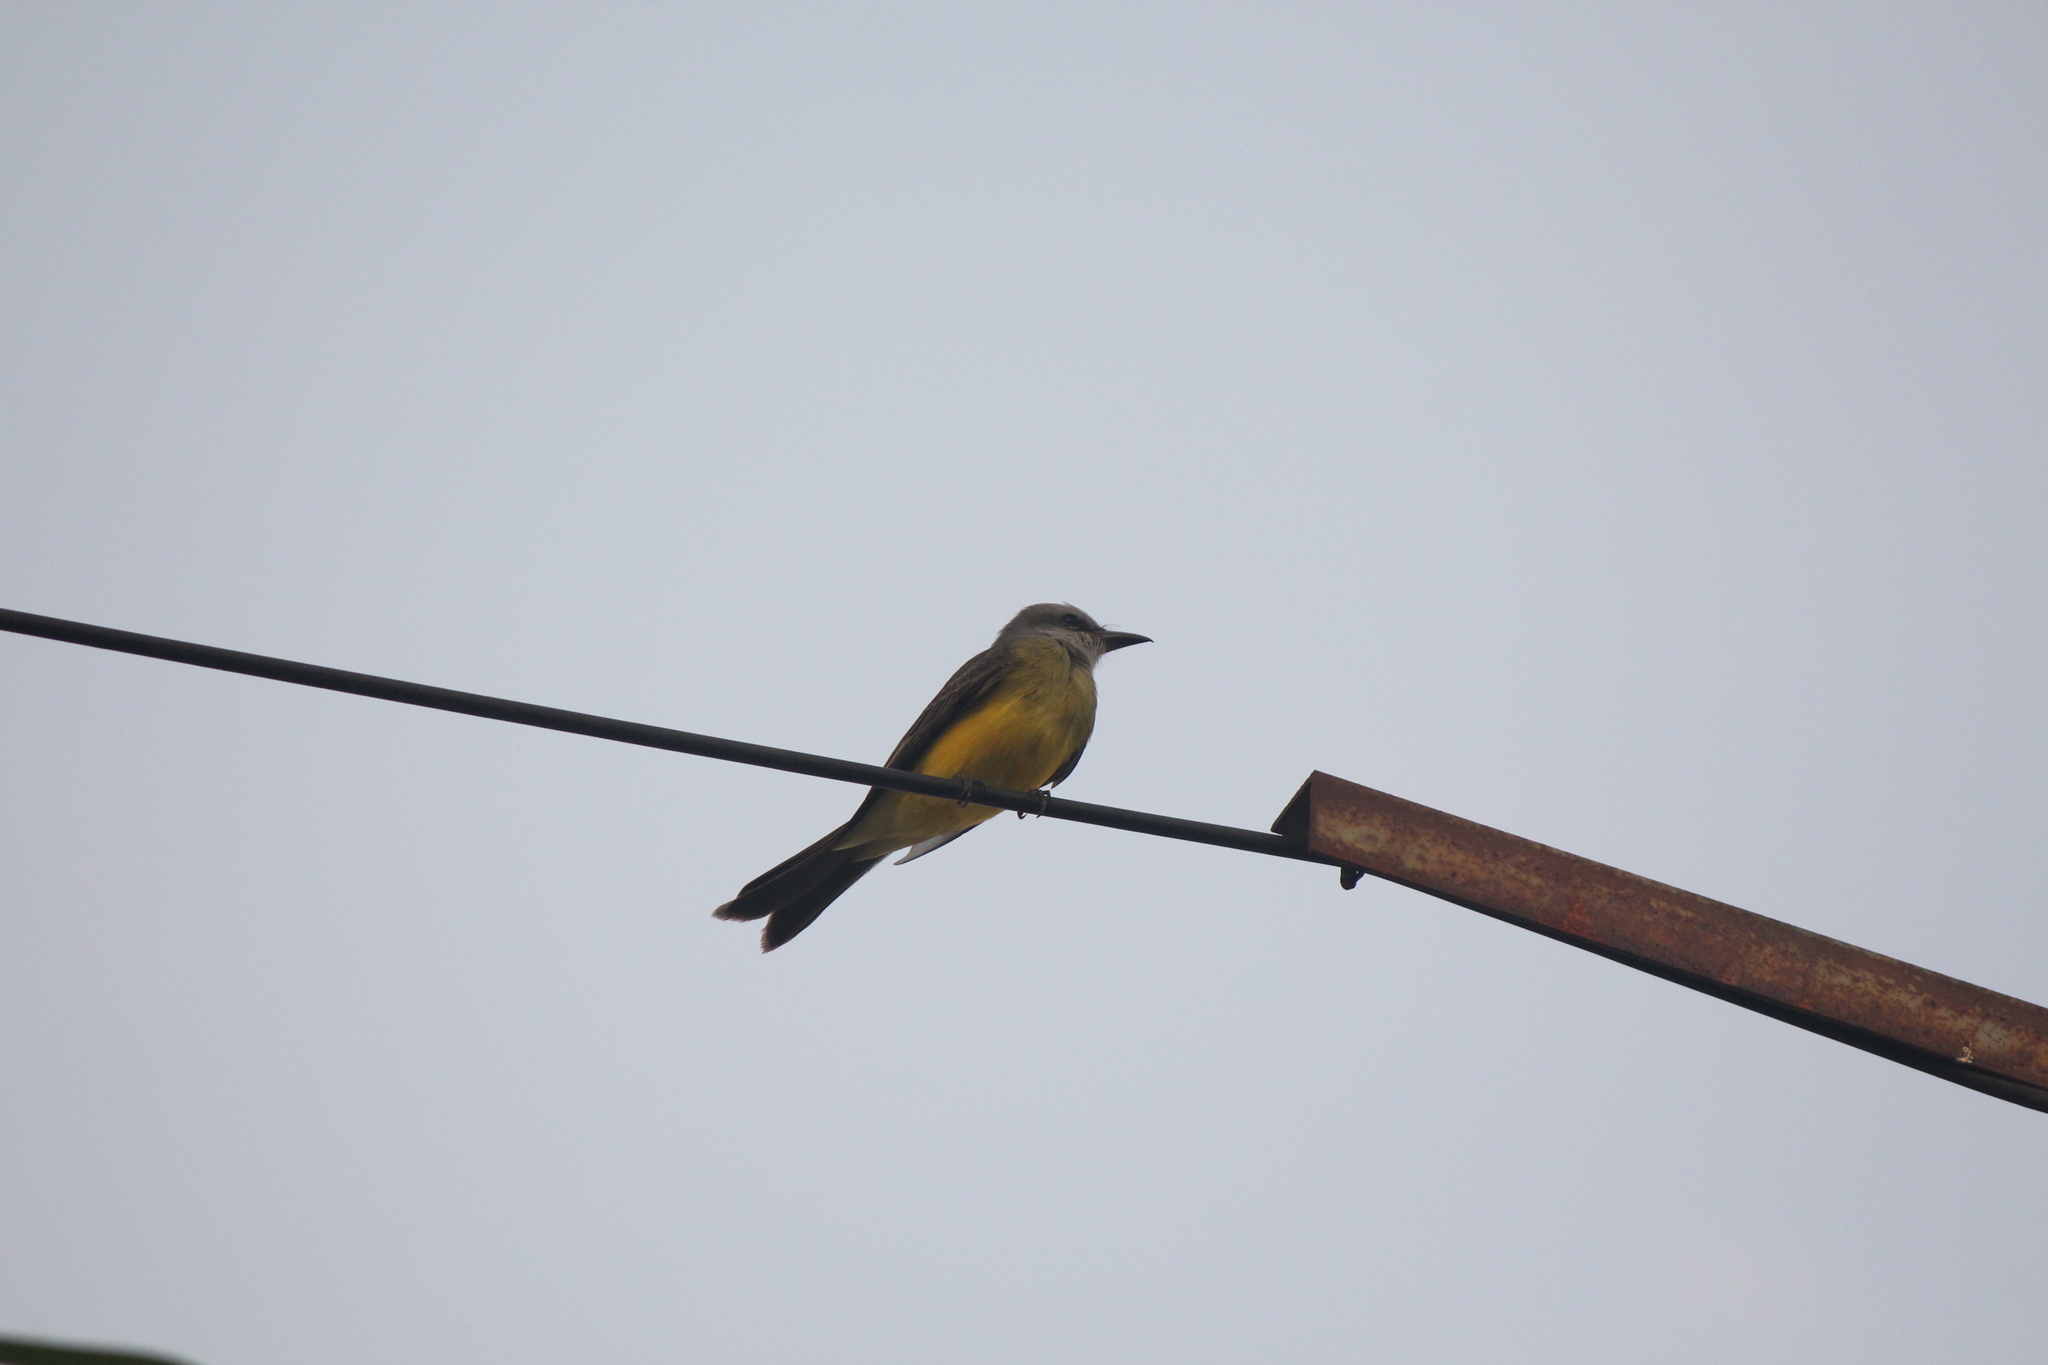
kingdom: Animalia
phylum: Chordata
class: Aves
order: Passeriformes
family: Tyrannidae
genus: Tyrannus
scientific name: Tyrannus melancholicus
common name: Tropical kingbird
